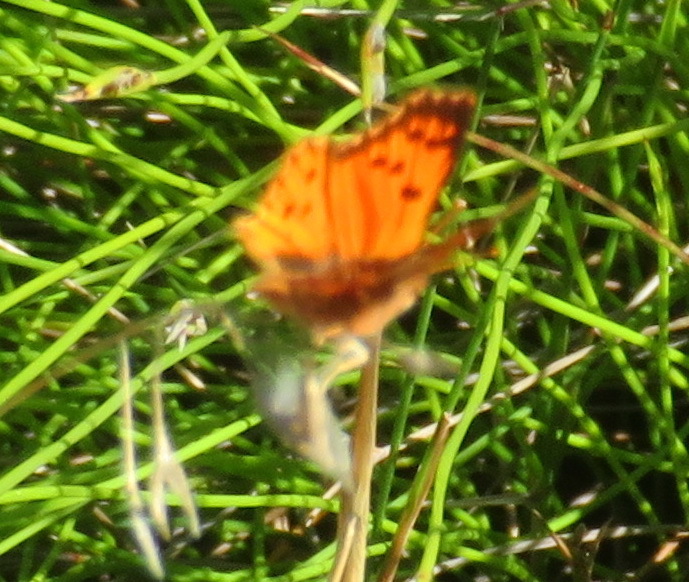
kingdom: Animalia
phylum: Arthropoda
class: Insecta
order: Lepidoptera
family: Lycaenidae
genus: Chrysoritis
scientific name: Chrysoritis
